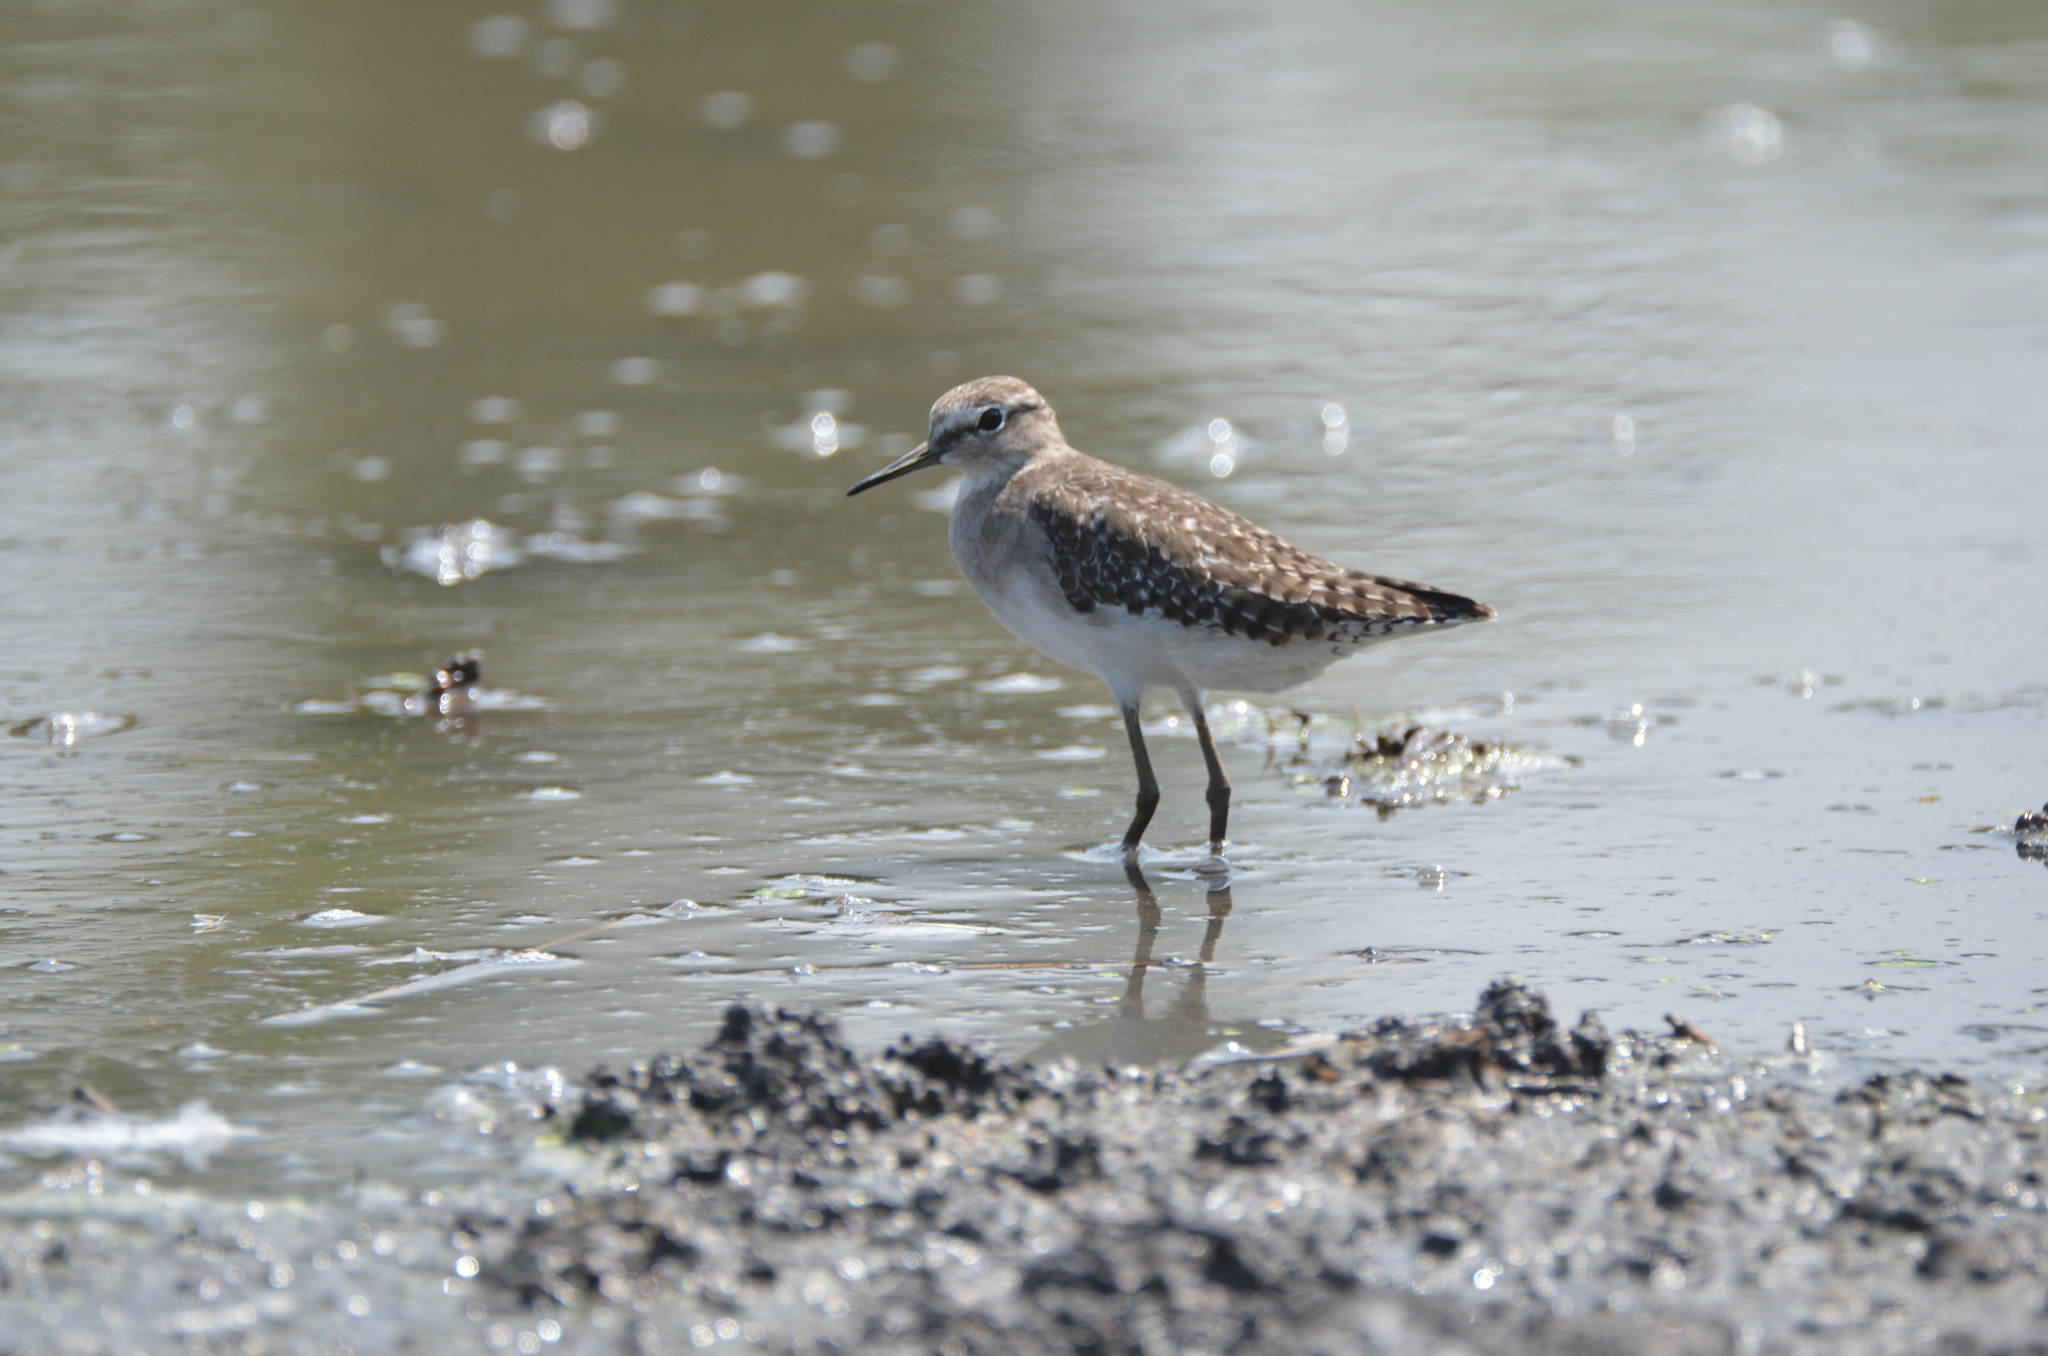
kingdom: Animalia
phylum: Chordata
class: Aves
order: Charadriiformes
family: Scolopacidae
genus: Tringa
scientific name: Tringa glareola
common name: Wood sandpiper
